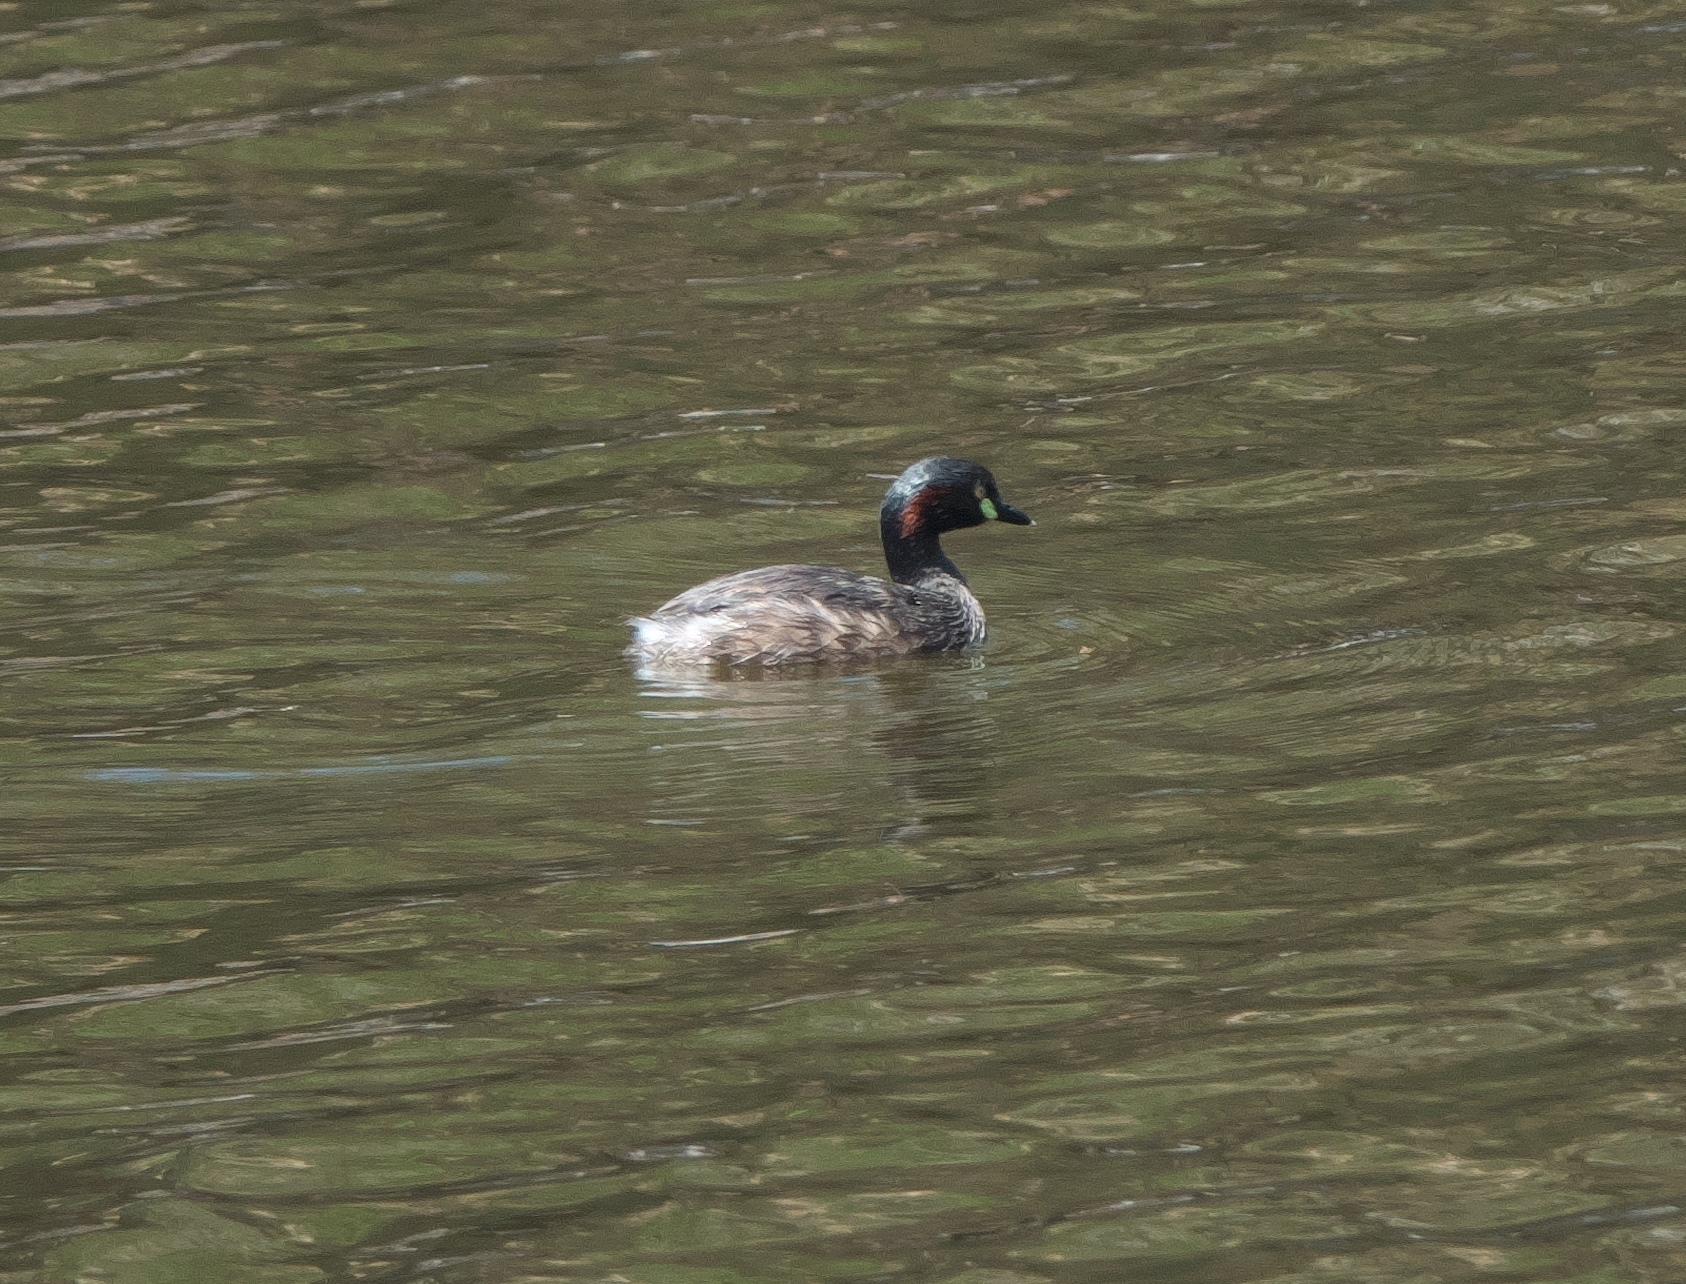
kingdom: Animalia
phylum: Chordata
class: Aves
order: Podicipediformes
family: Podicipedidae
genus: Tachybaptus
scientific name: Tachybaptus novaehollandiae
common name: Australasian grebe
